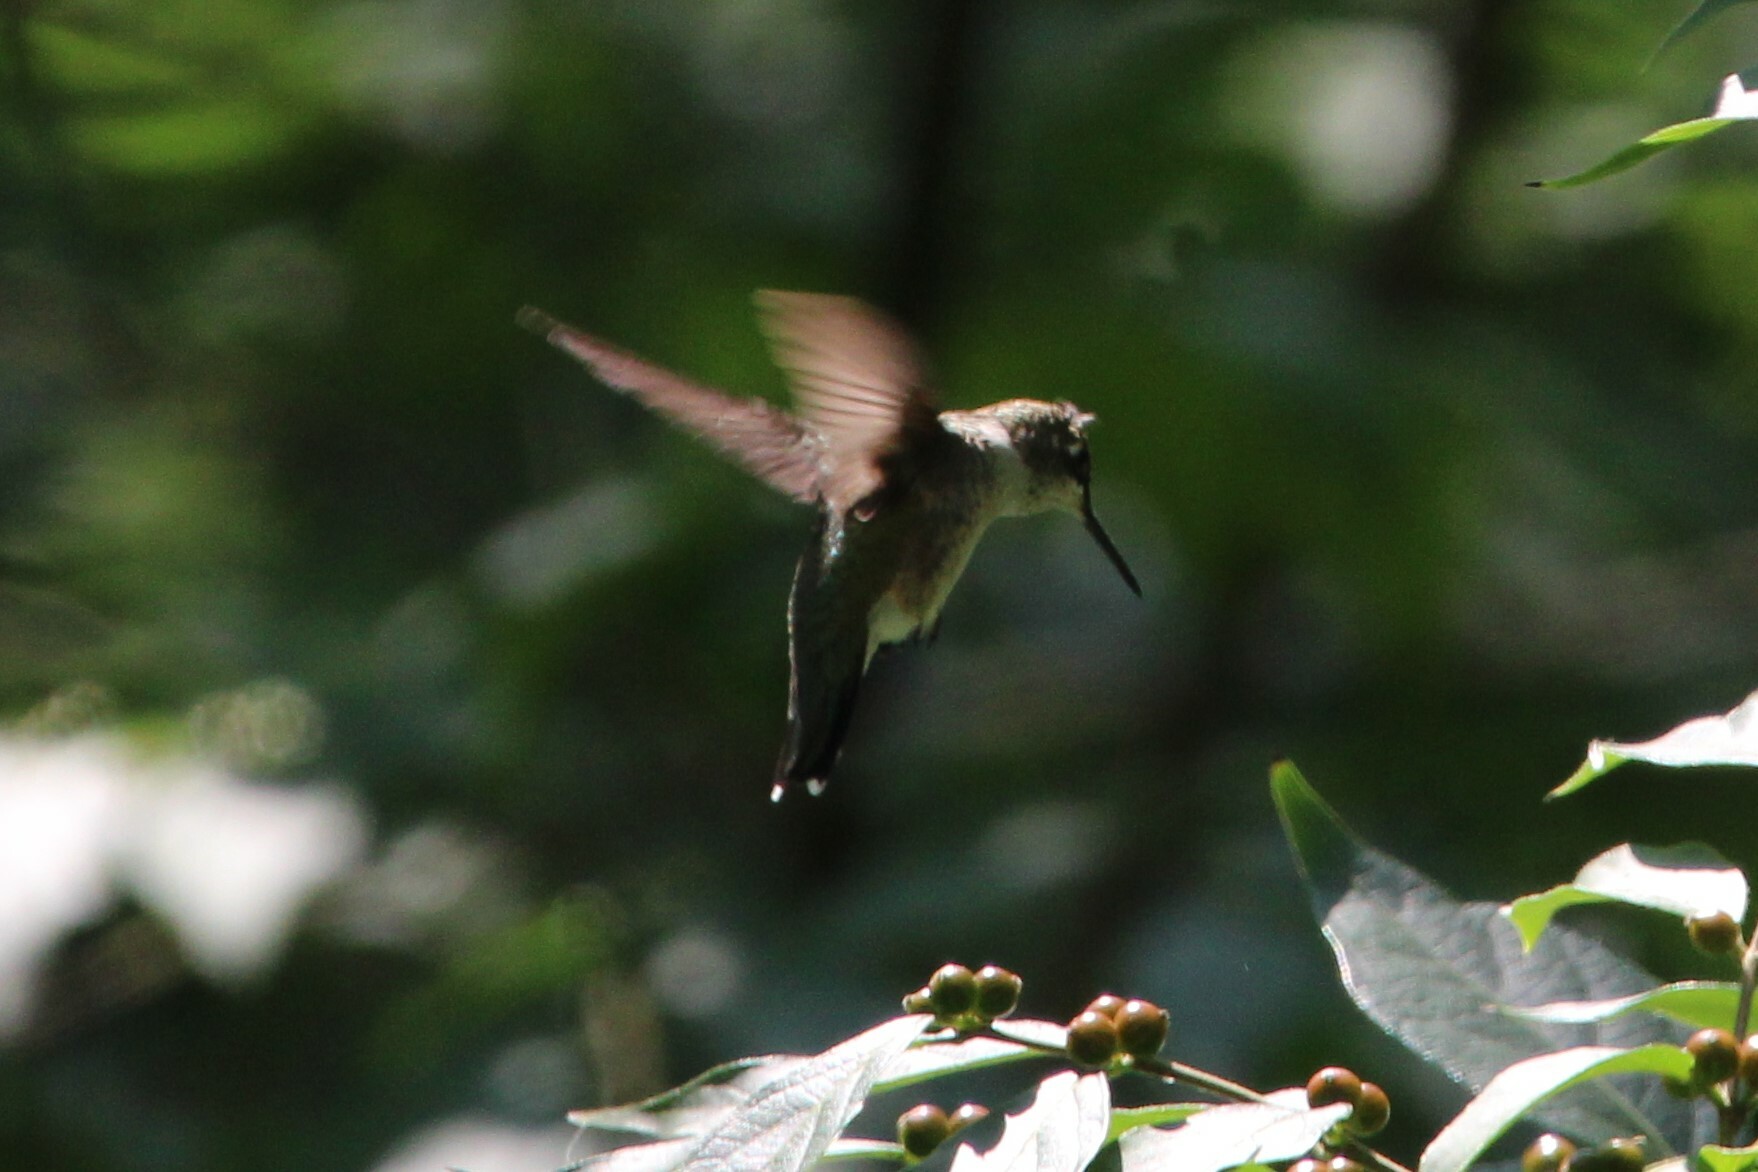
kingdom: Animalia
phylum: Chordata
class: Aves
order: Apodiformes
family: Trochilidae
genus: Archilochus
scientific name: Archilochus colubris
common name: Ruby-throated hummingbird
